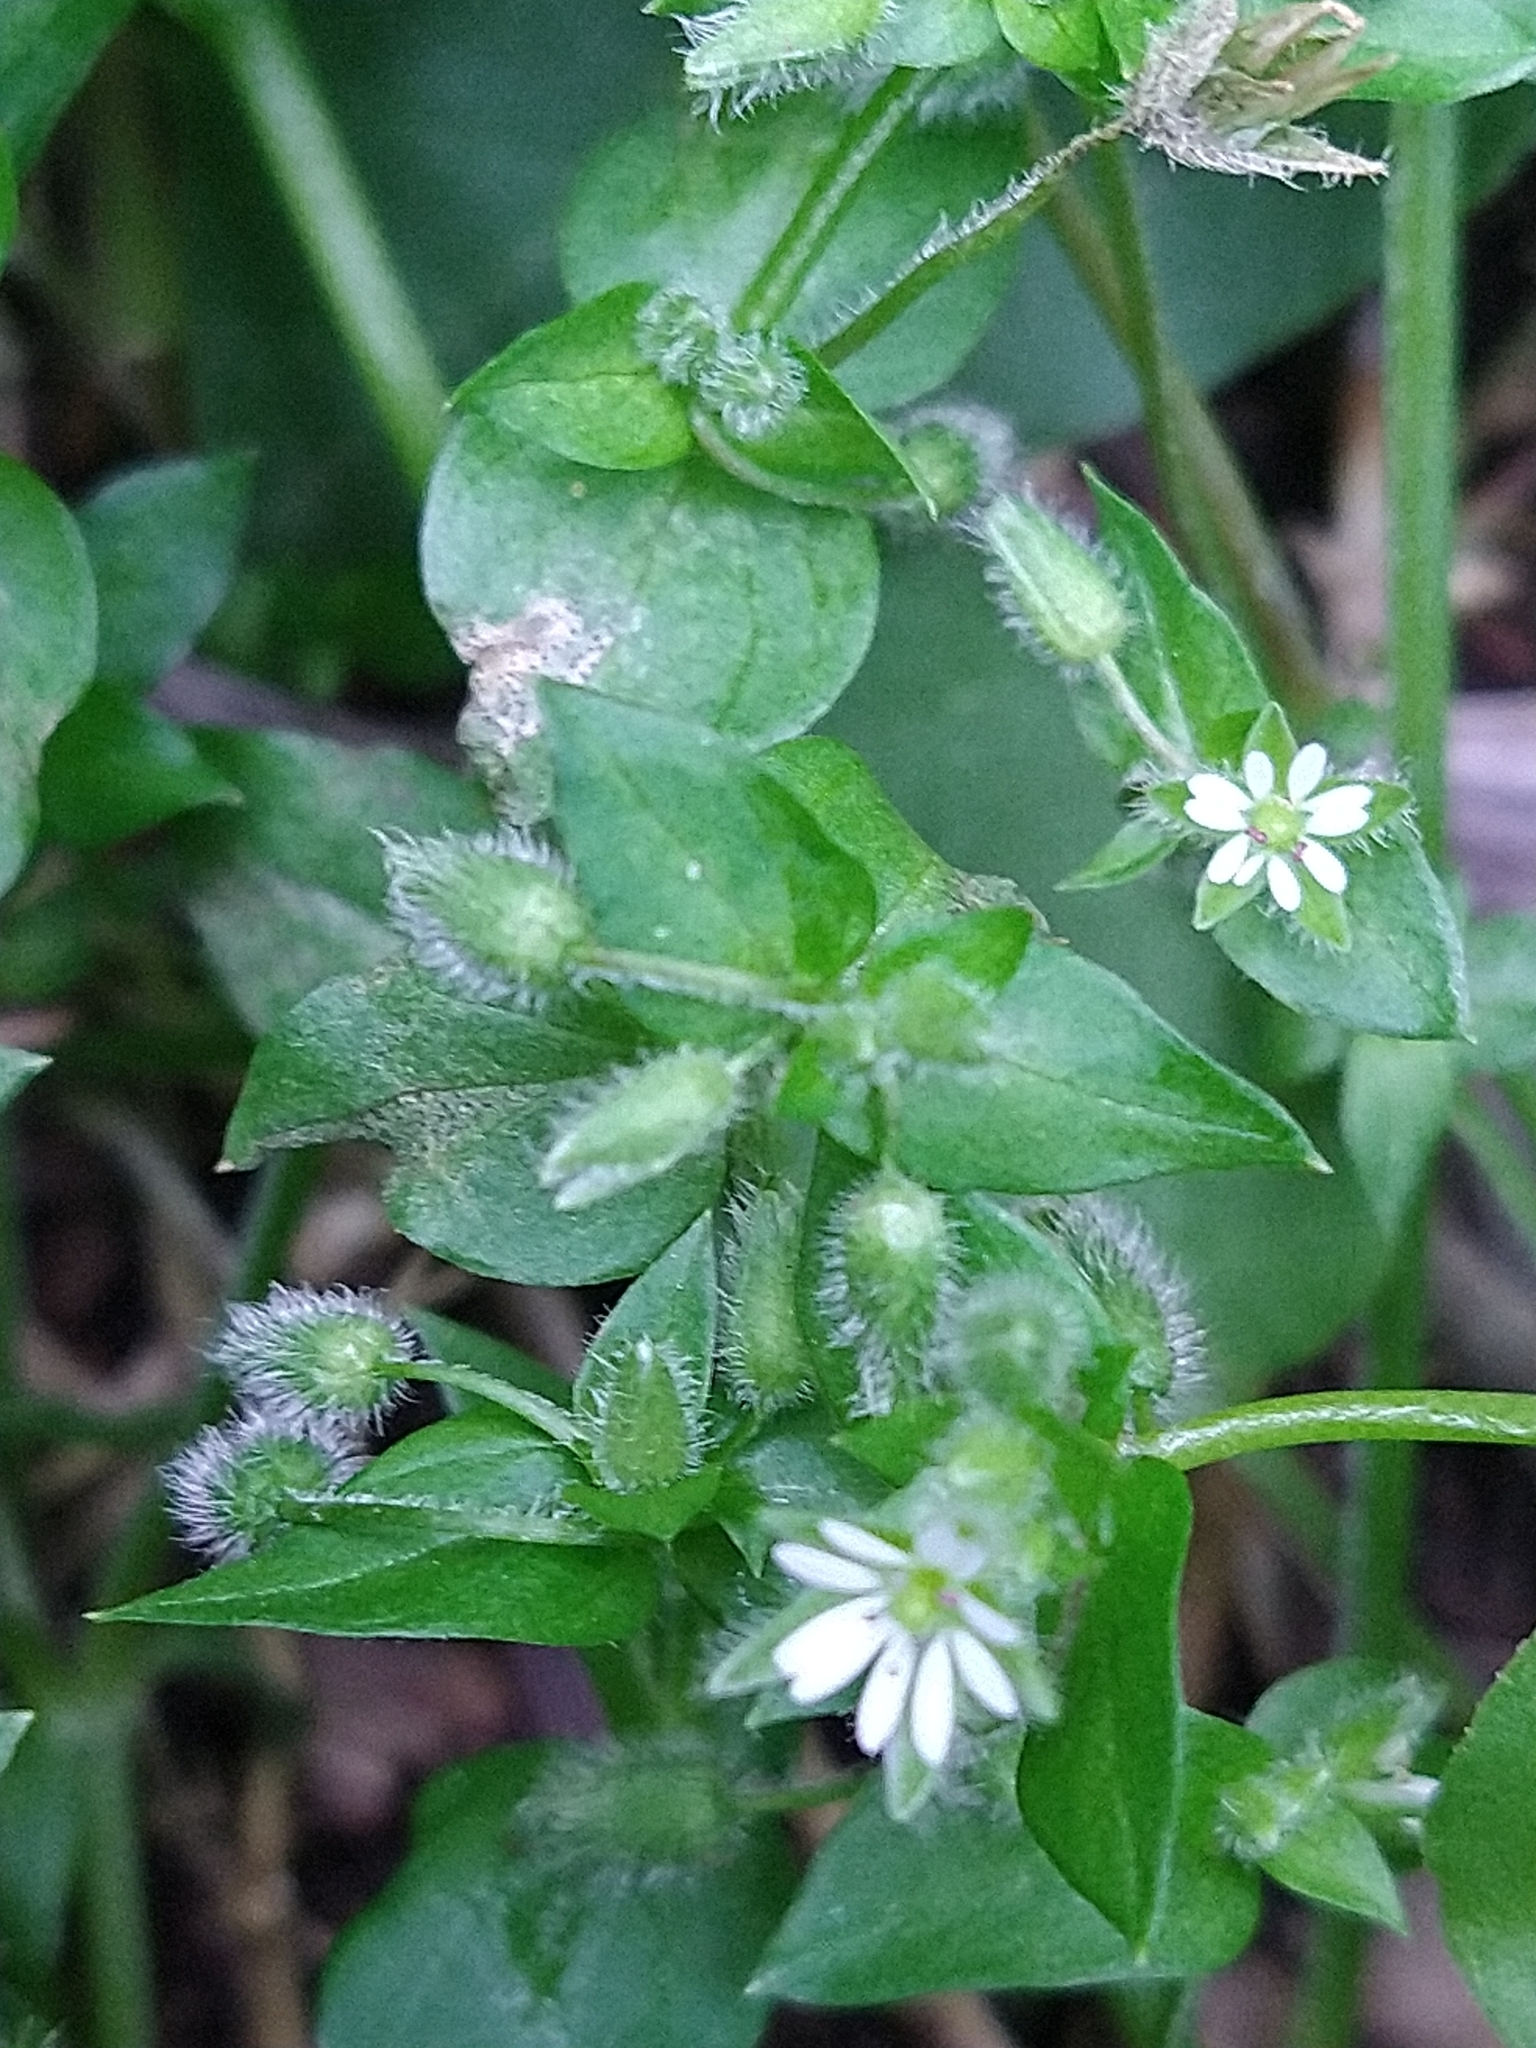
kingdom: Plantae
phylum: Tracheophyta
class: Magnoliopsida
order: Caryophyllales
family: Caryophyllaceae
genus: Stellaria
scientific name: Stellaria media
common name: Common chickweed
